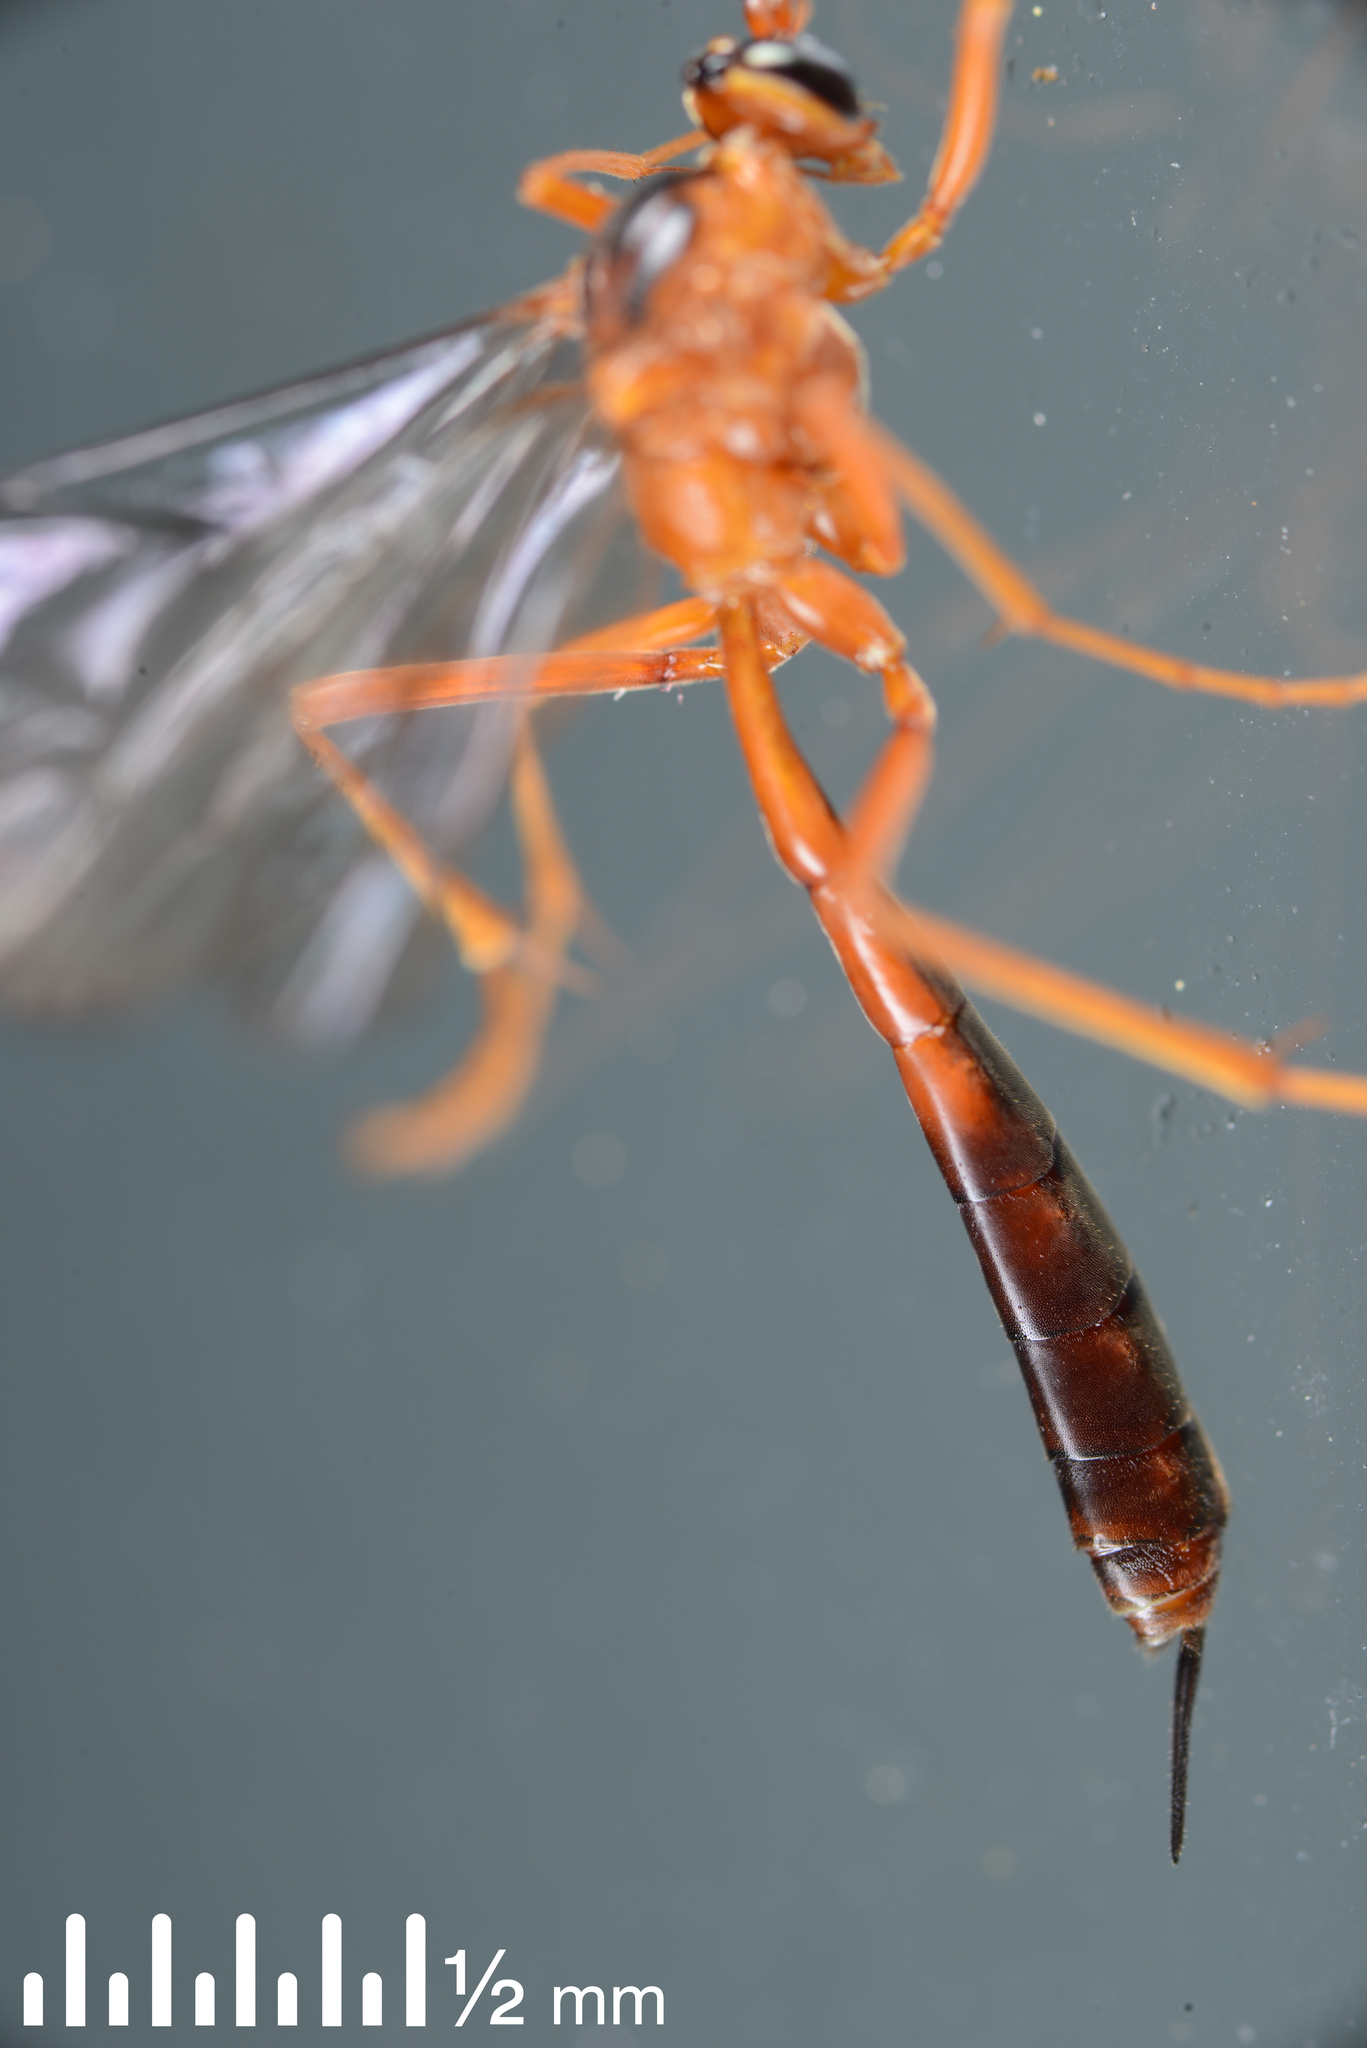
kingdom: Animalia
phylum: Arthropoda
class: Insecta
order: Hymenoptera
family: Ichneumonidae
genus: Netelia
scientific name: Netelia ephippiata
